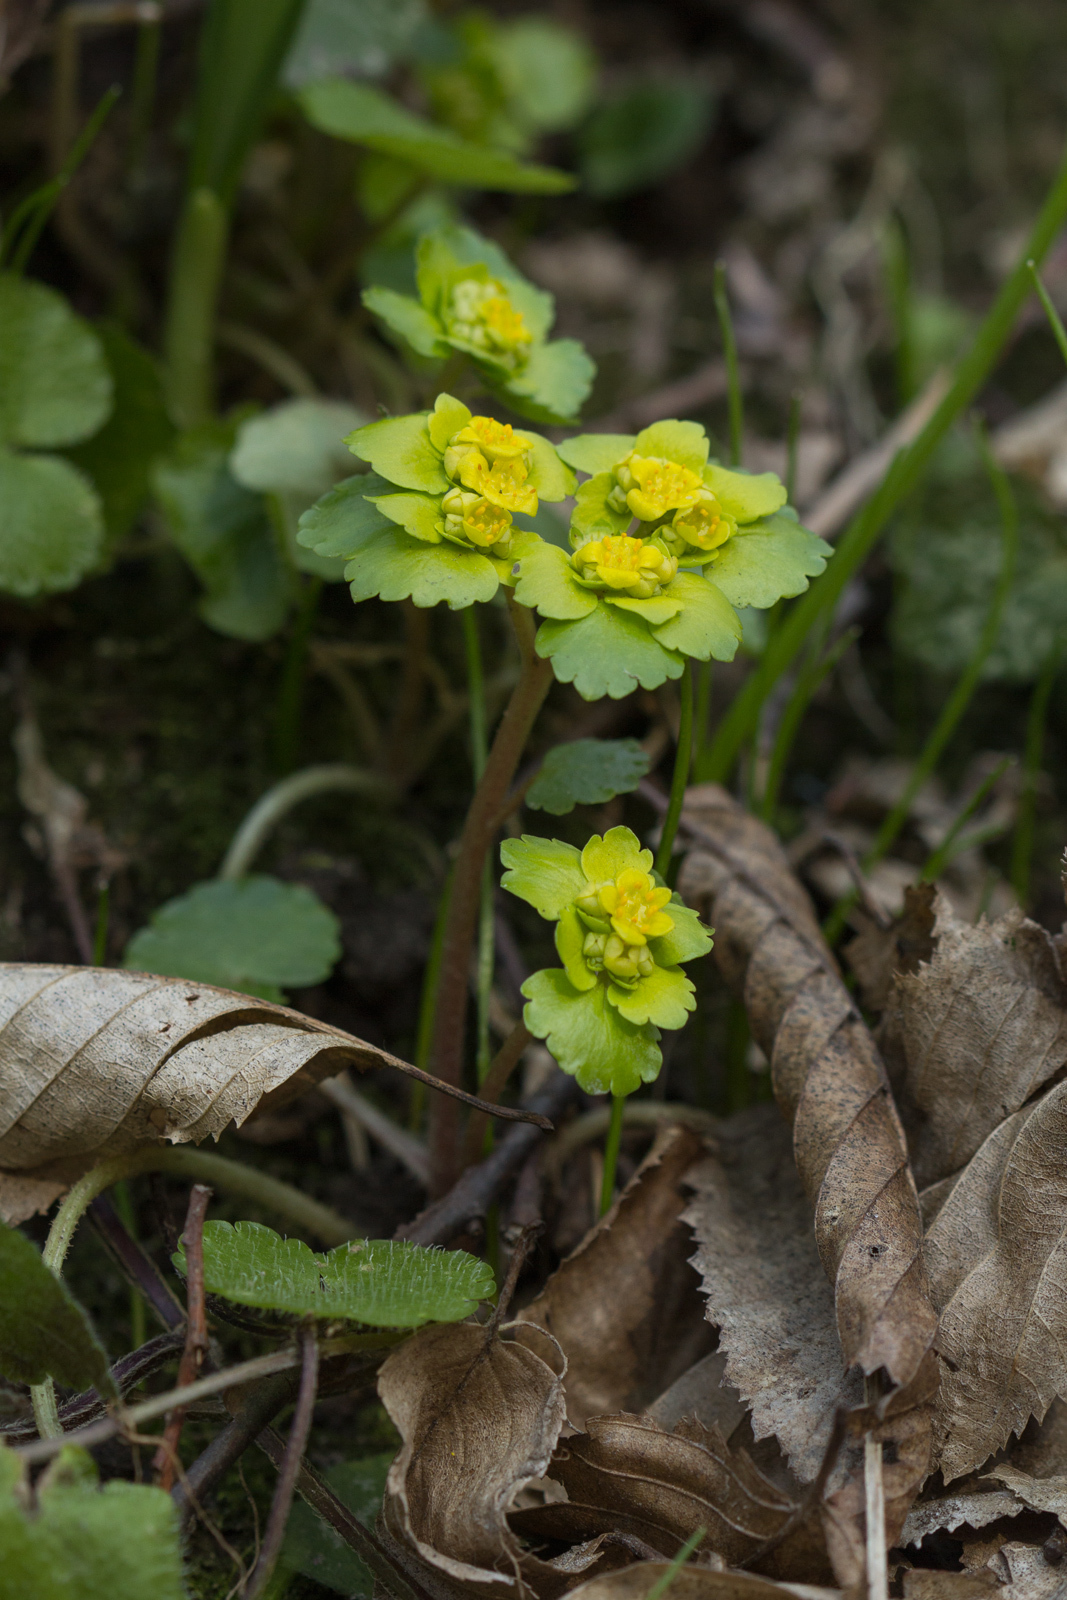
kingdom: Plantae
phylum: Tracheophyta
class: Magnoliopsida
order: Saxifragales
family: Saxifragaceae
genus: Chrysosplenium
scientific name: Chrysosplenium alternifolium
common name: Alternate-leaved golden-saxifrage
